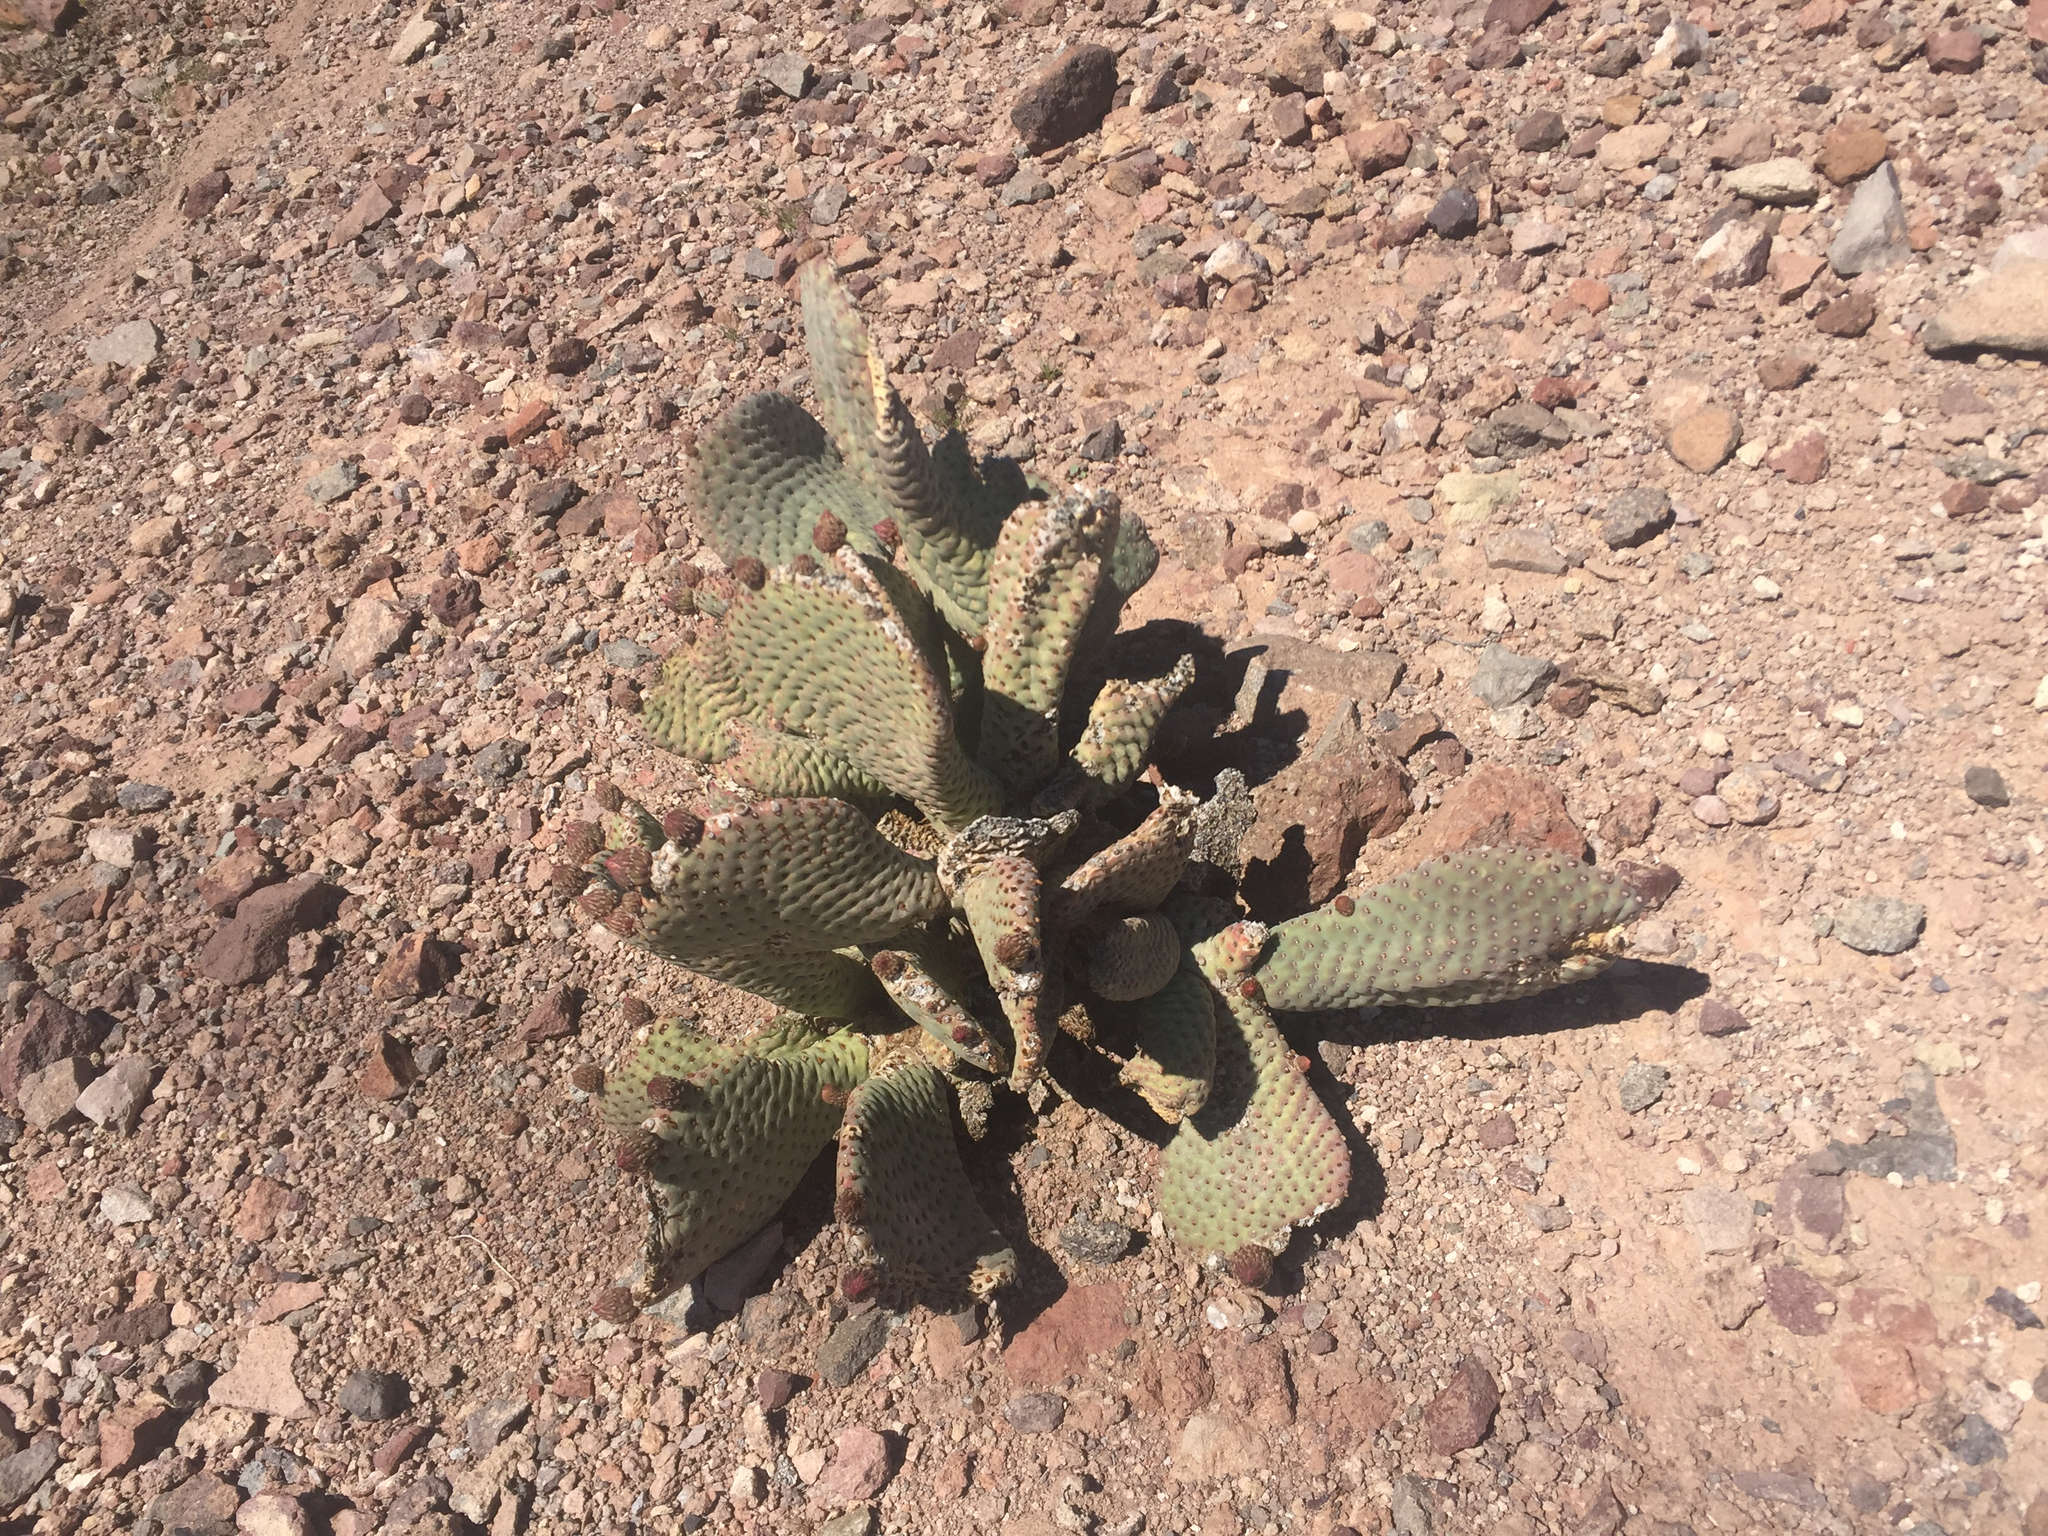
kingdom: Plantae
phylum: Tracheophyta
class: Magnoliopsida
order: Caryophyllales
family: Cactaceae
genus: Opuntia
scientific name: Opuntia basilaris
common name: Beavertail prickly-pear
